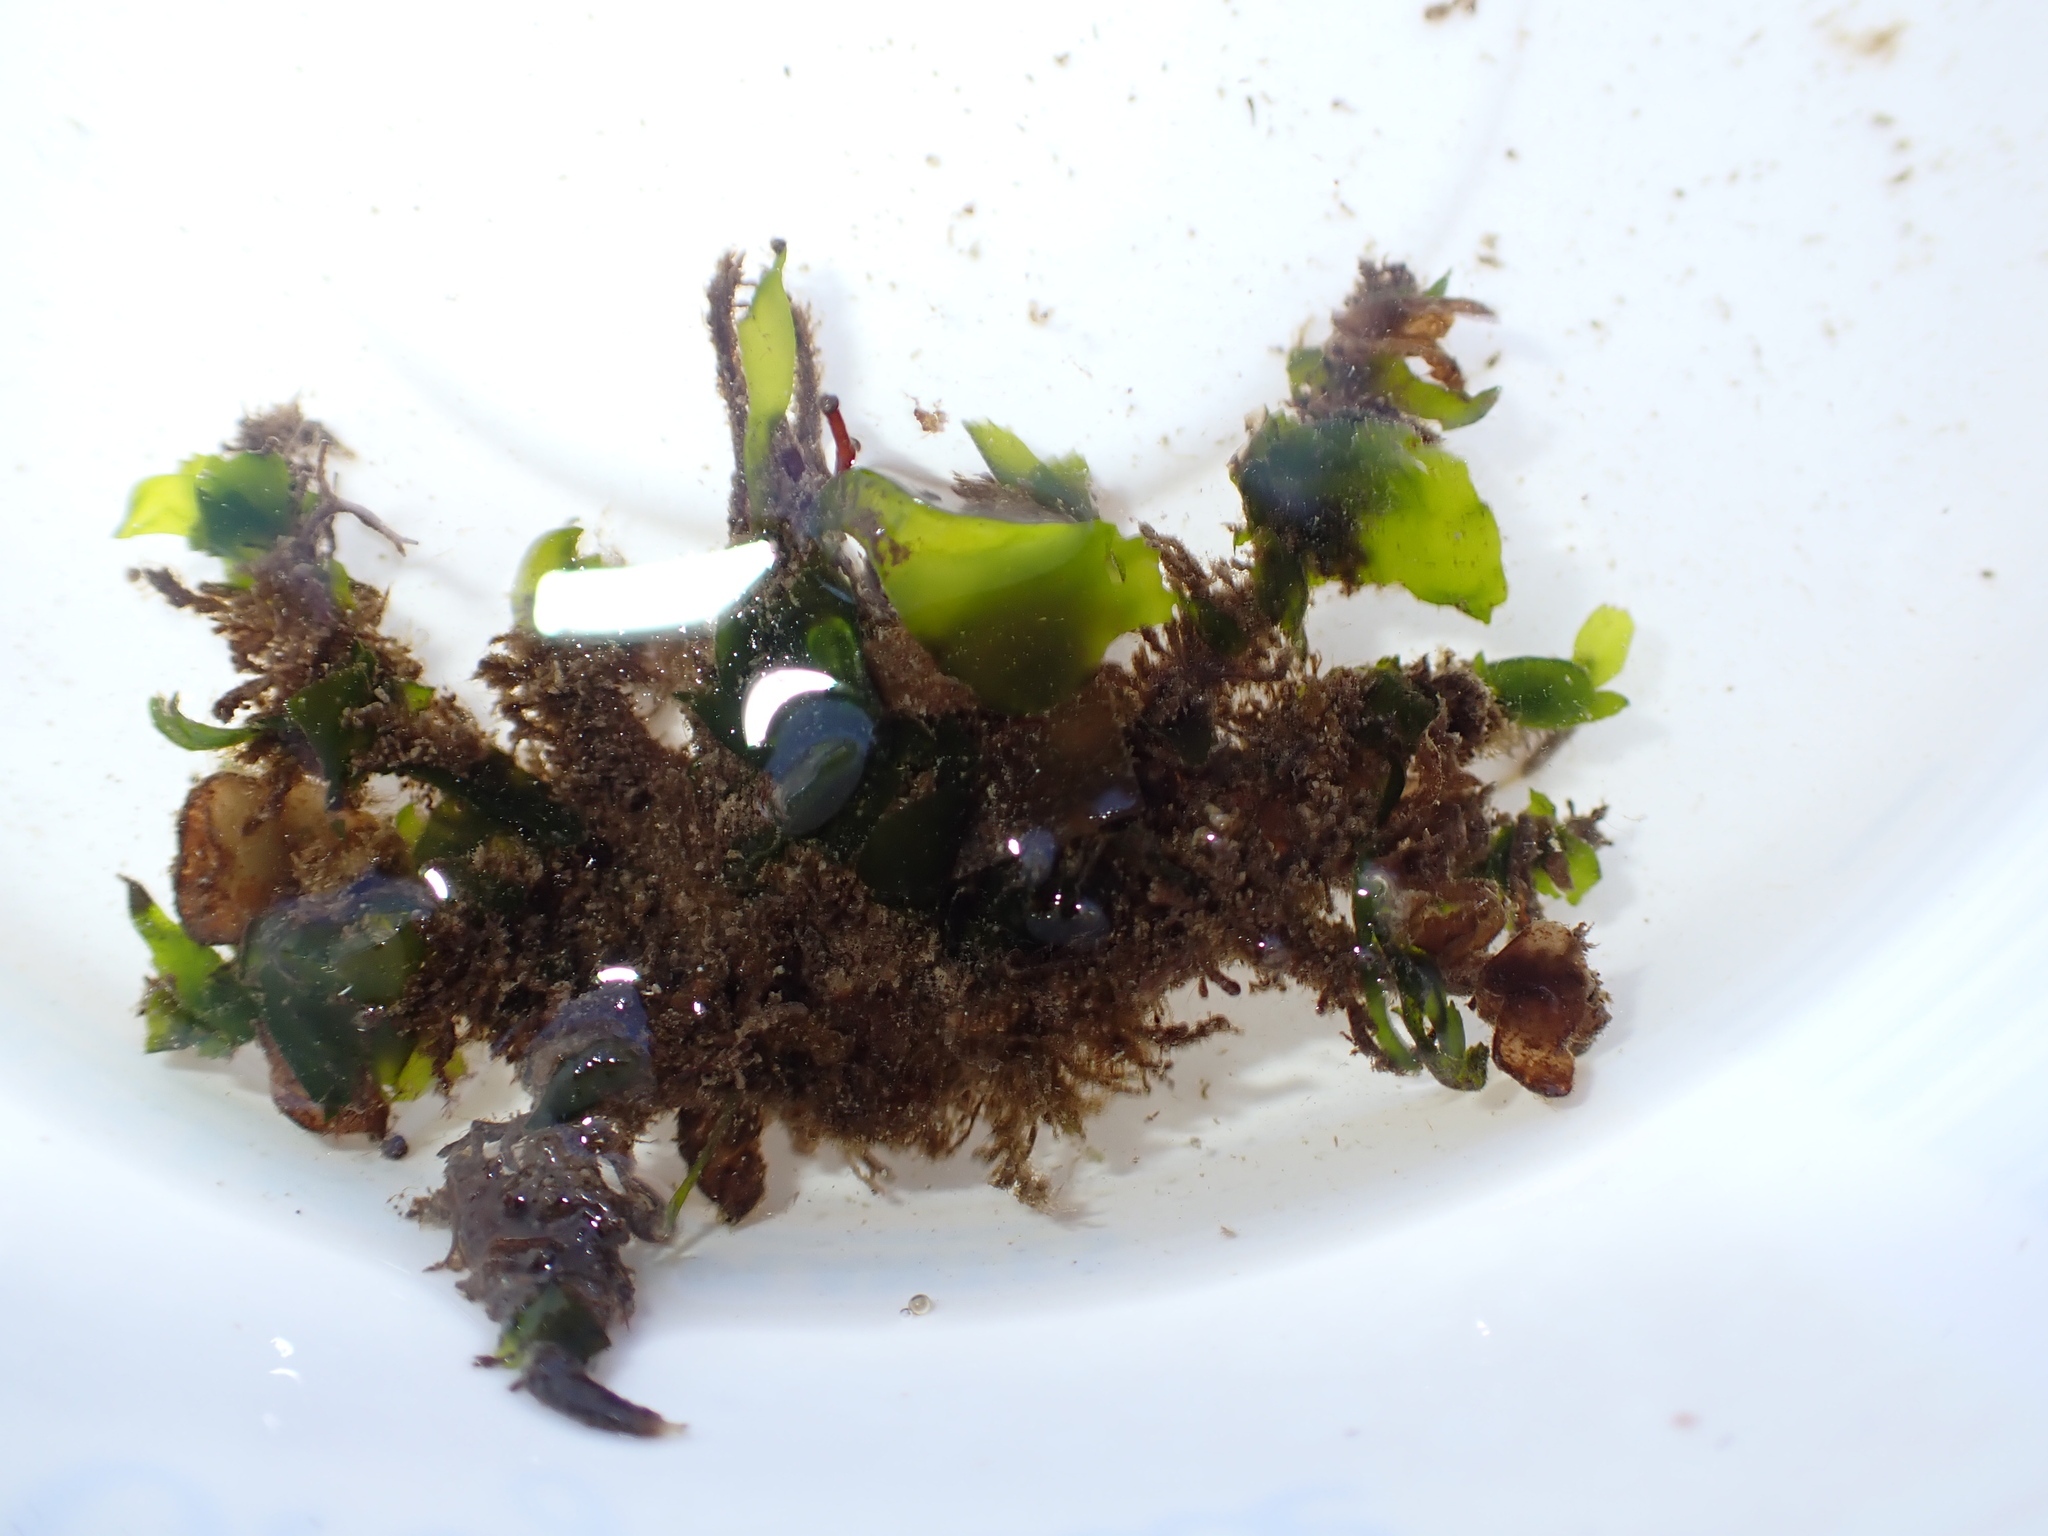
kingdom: Animalia
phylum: Arthropoda
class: Malacostraca
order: Decapoda
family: Oregoniidae
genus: Oregonia
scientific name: Oregonia gracilis
